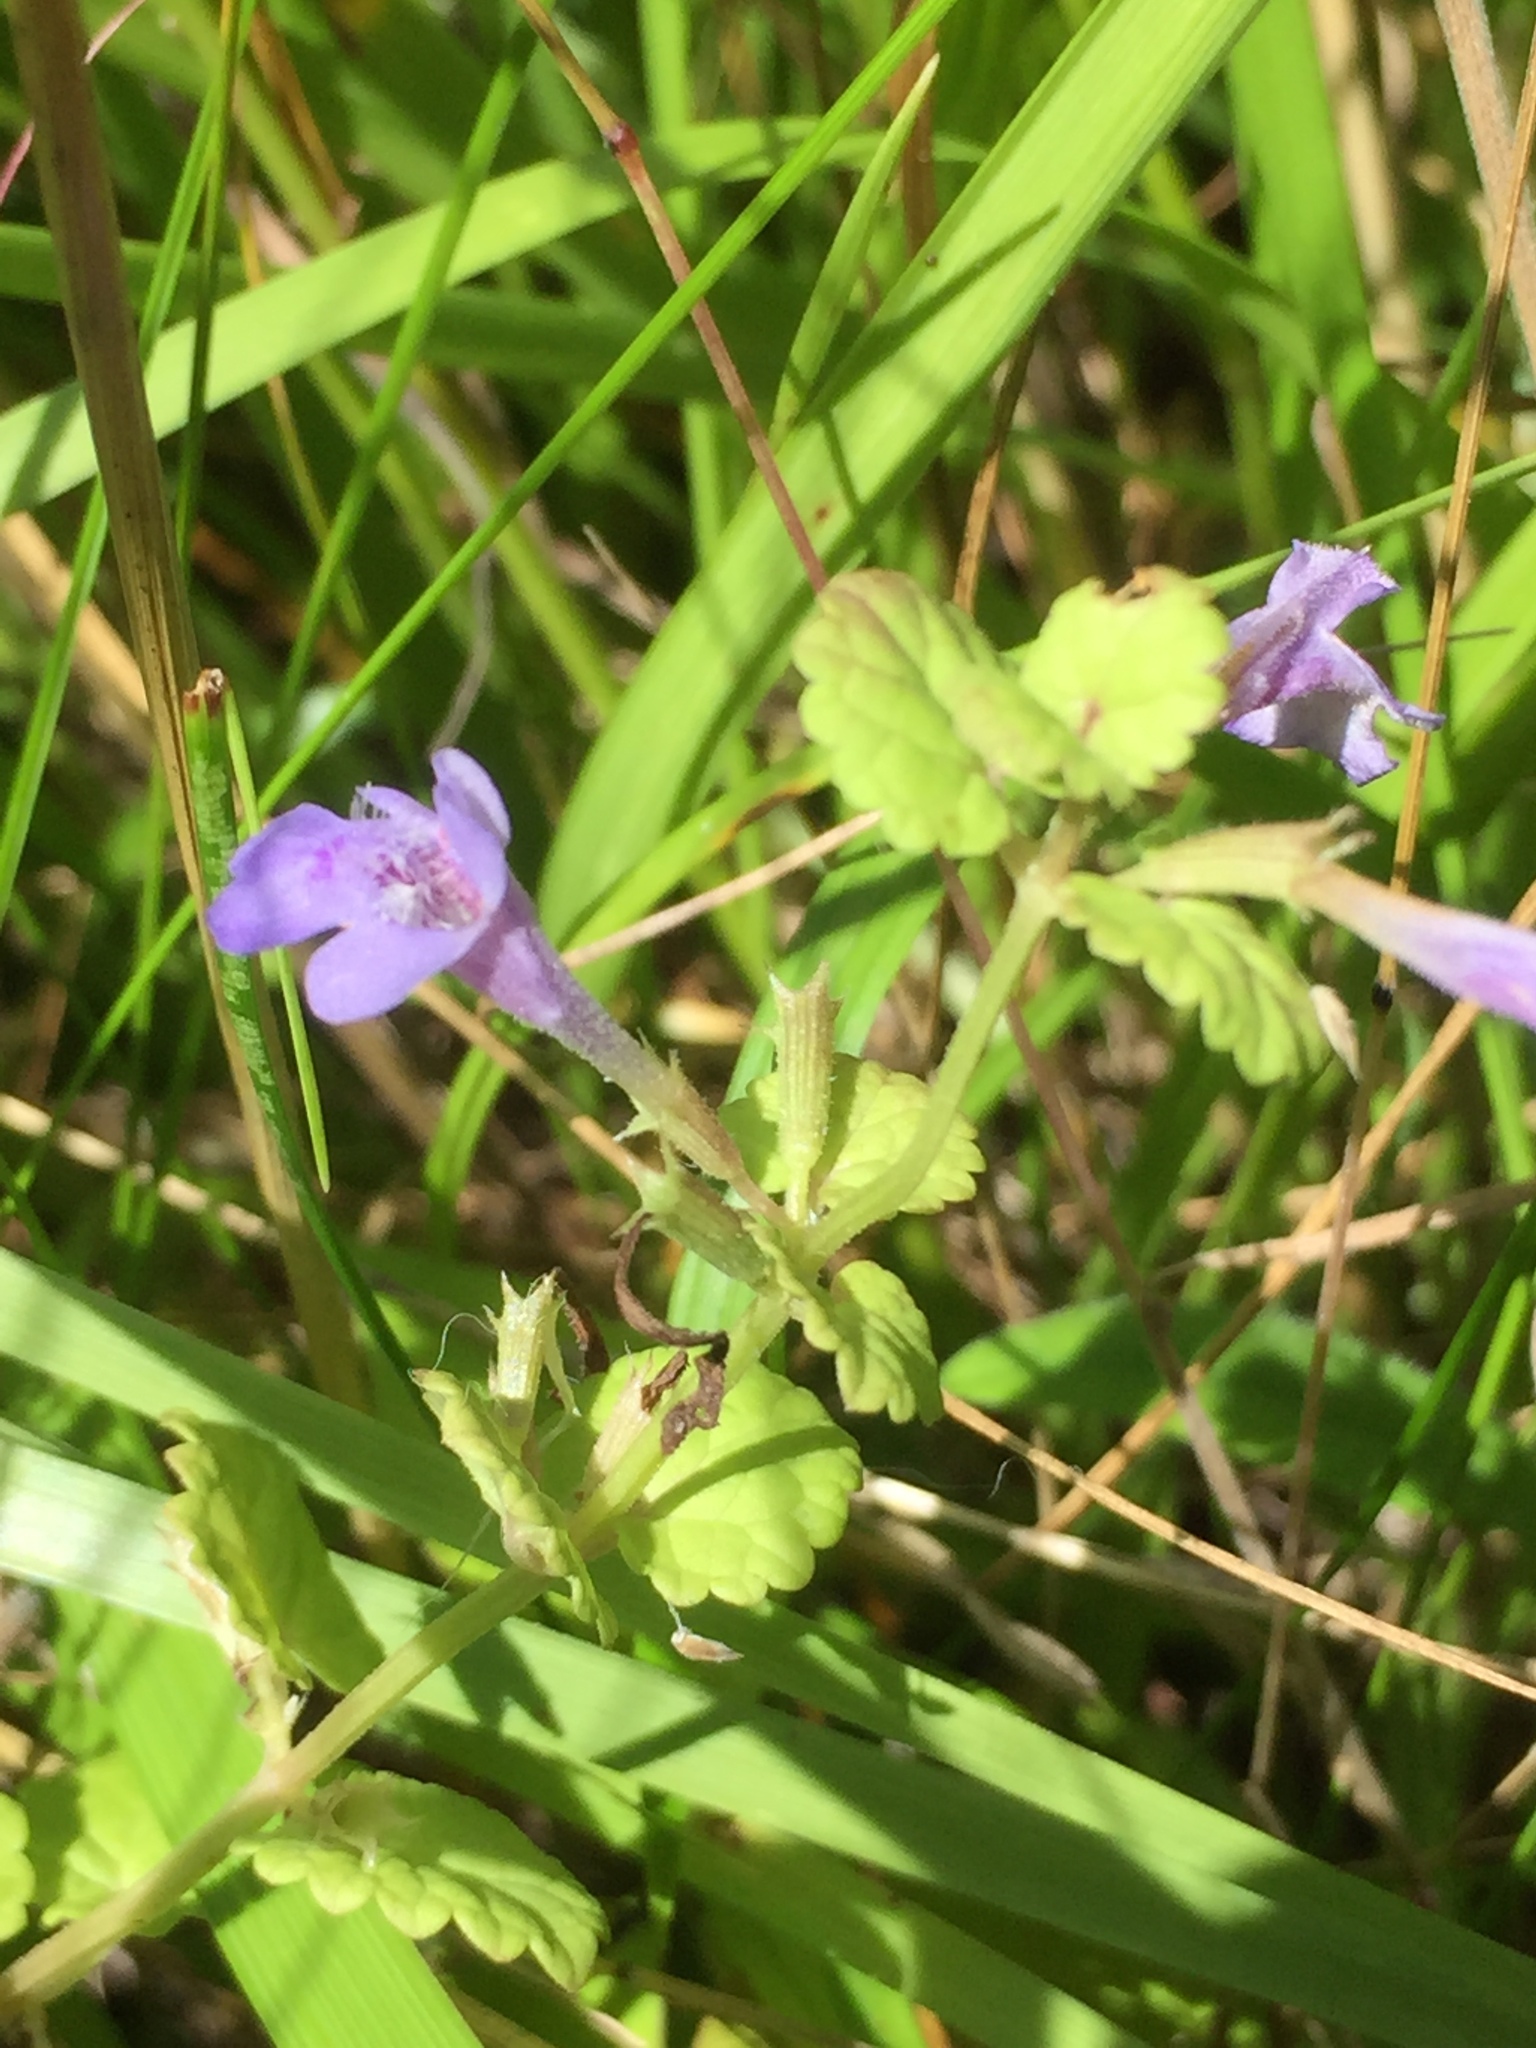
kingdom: Plantae
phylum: Tracheophyta
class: Magnoliopsida
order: Lamiales
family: Lamiaceae
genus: Glechoma
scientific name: Glechoma hederacea
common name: Ground ivy
